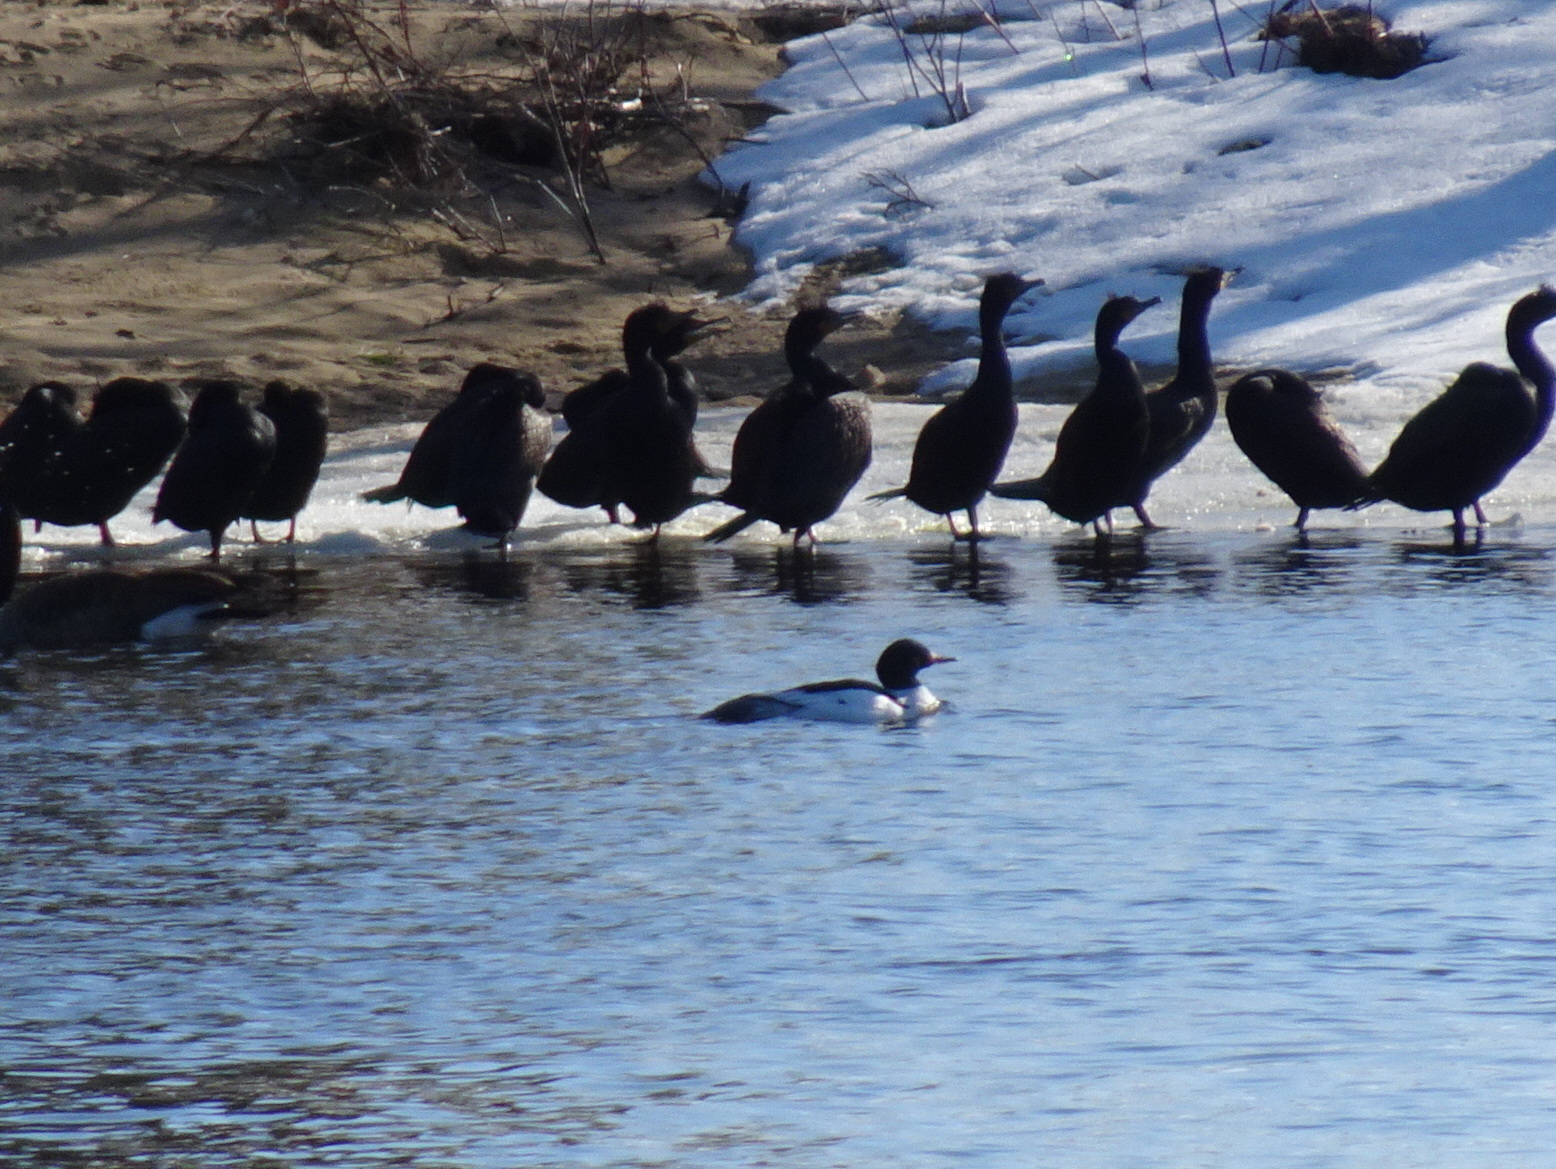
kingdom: Animalia
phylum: Chordata
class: Aves
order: Anseriformes
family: Anatidae
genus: Mergus
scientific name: Mergus merganser
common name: Common merganser
